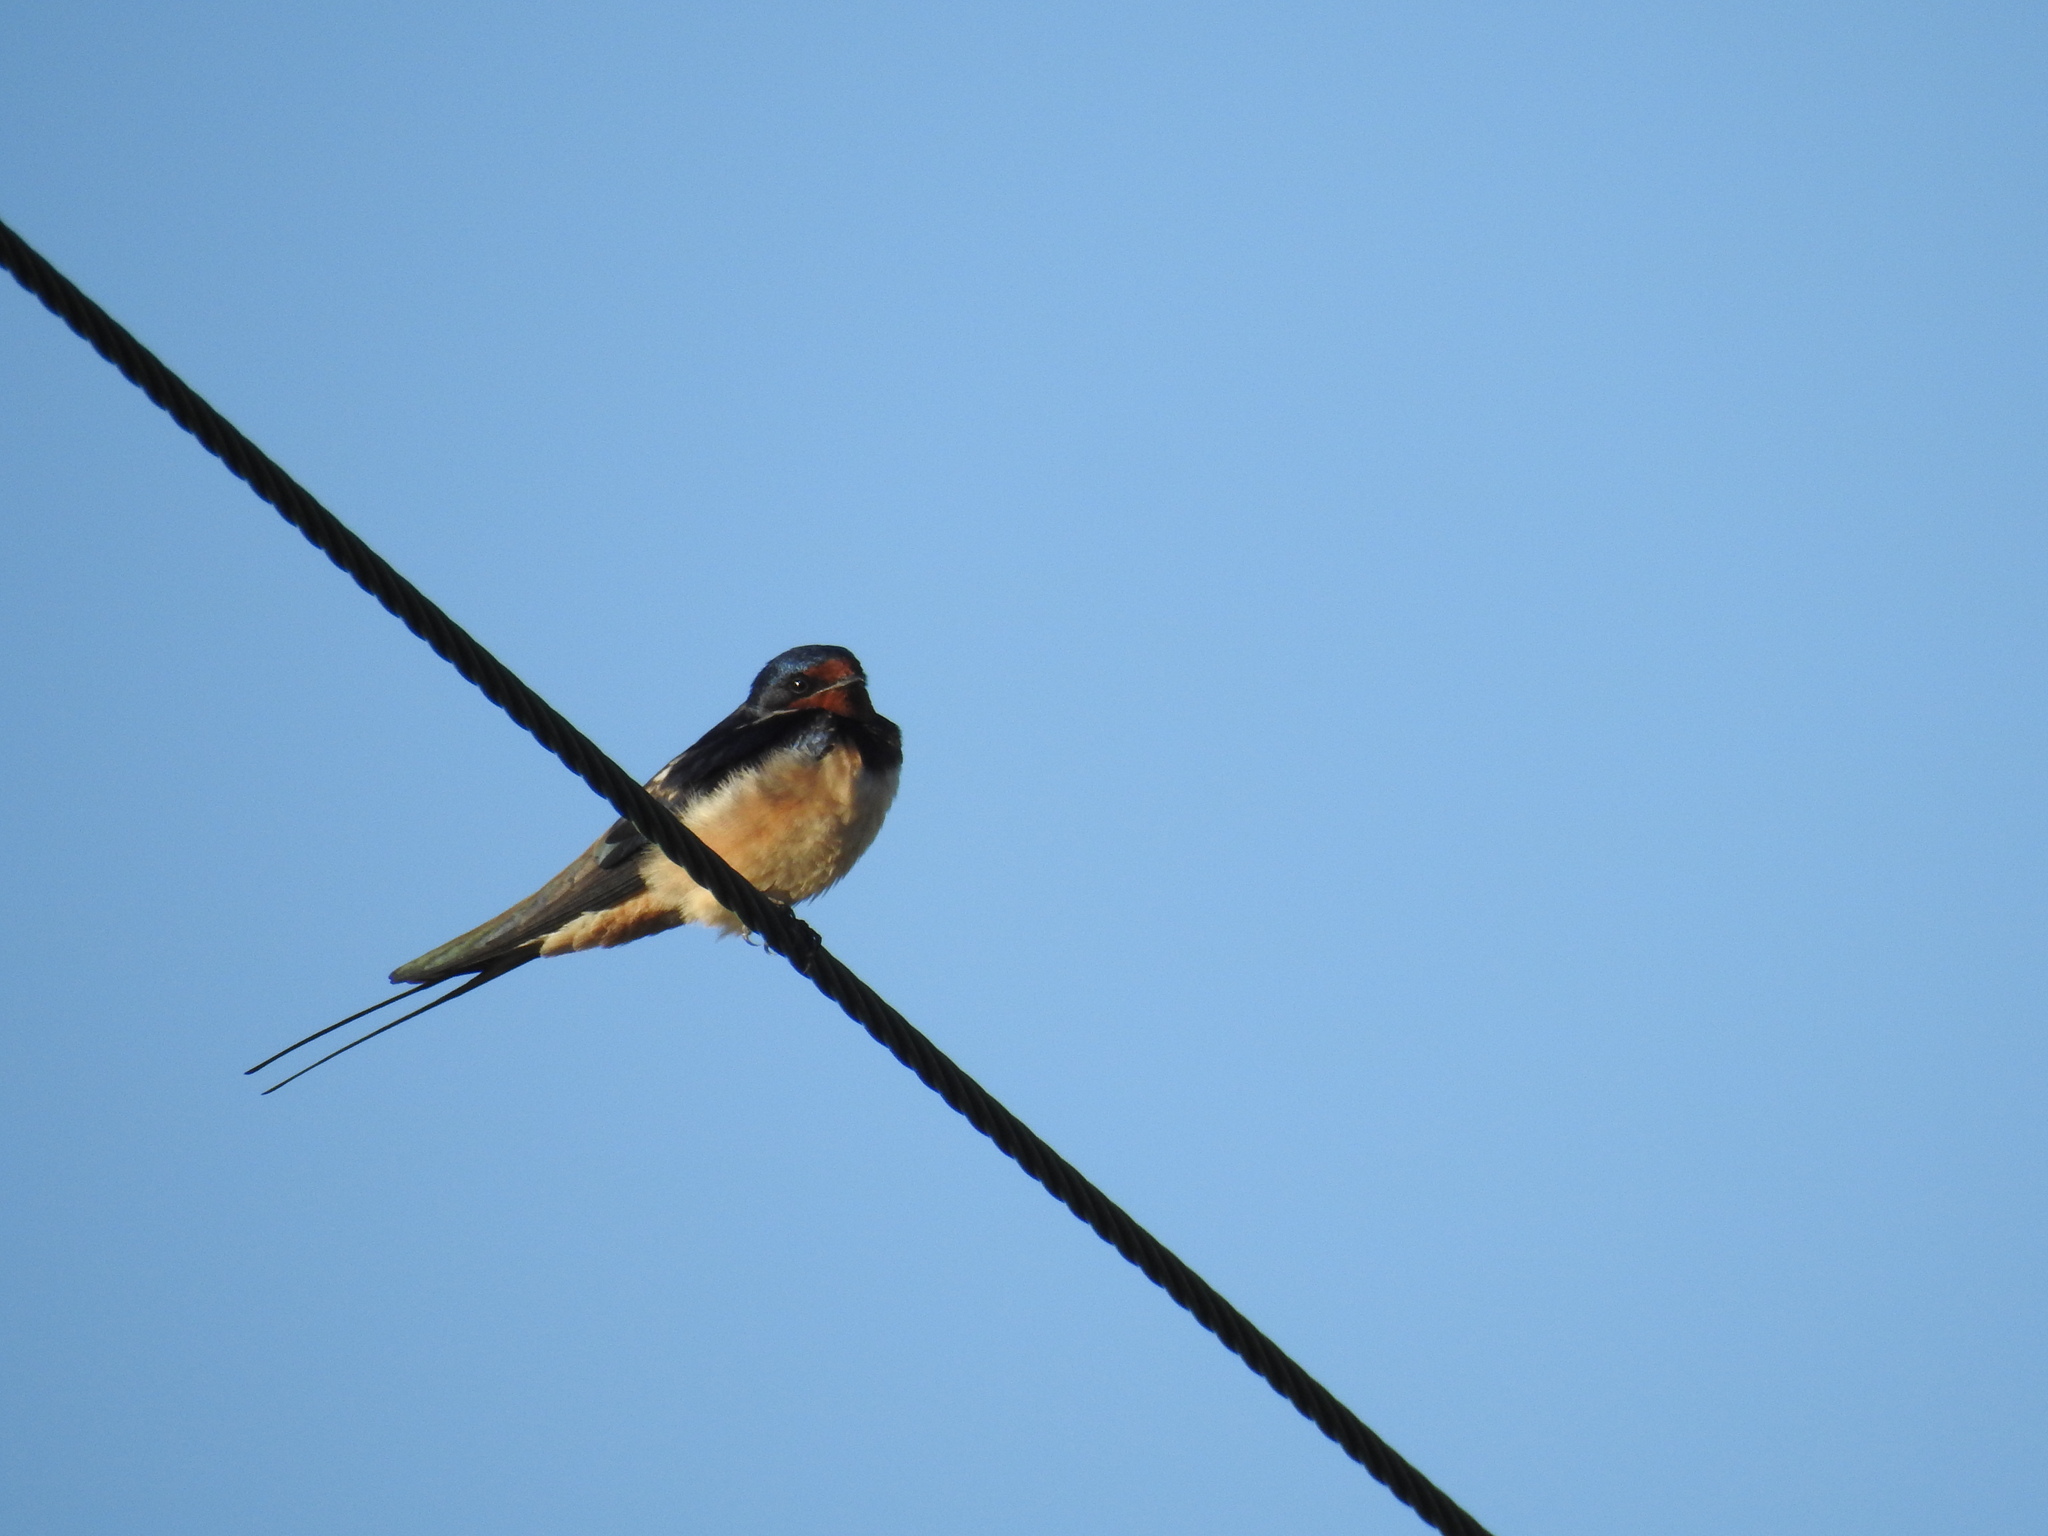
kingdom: Animalia
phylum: Chordata
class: Aves
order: Passeriformes
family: Hirundinidae
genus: Hirundo
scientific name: Hirundo rustica
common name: Barn swallow
